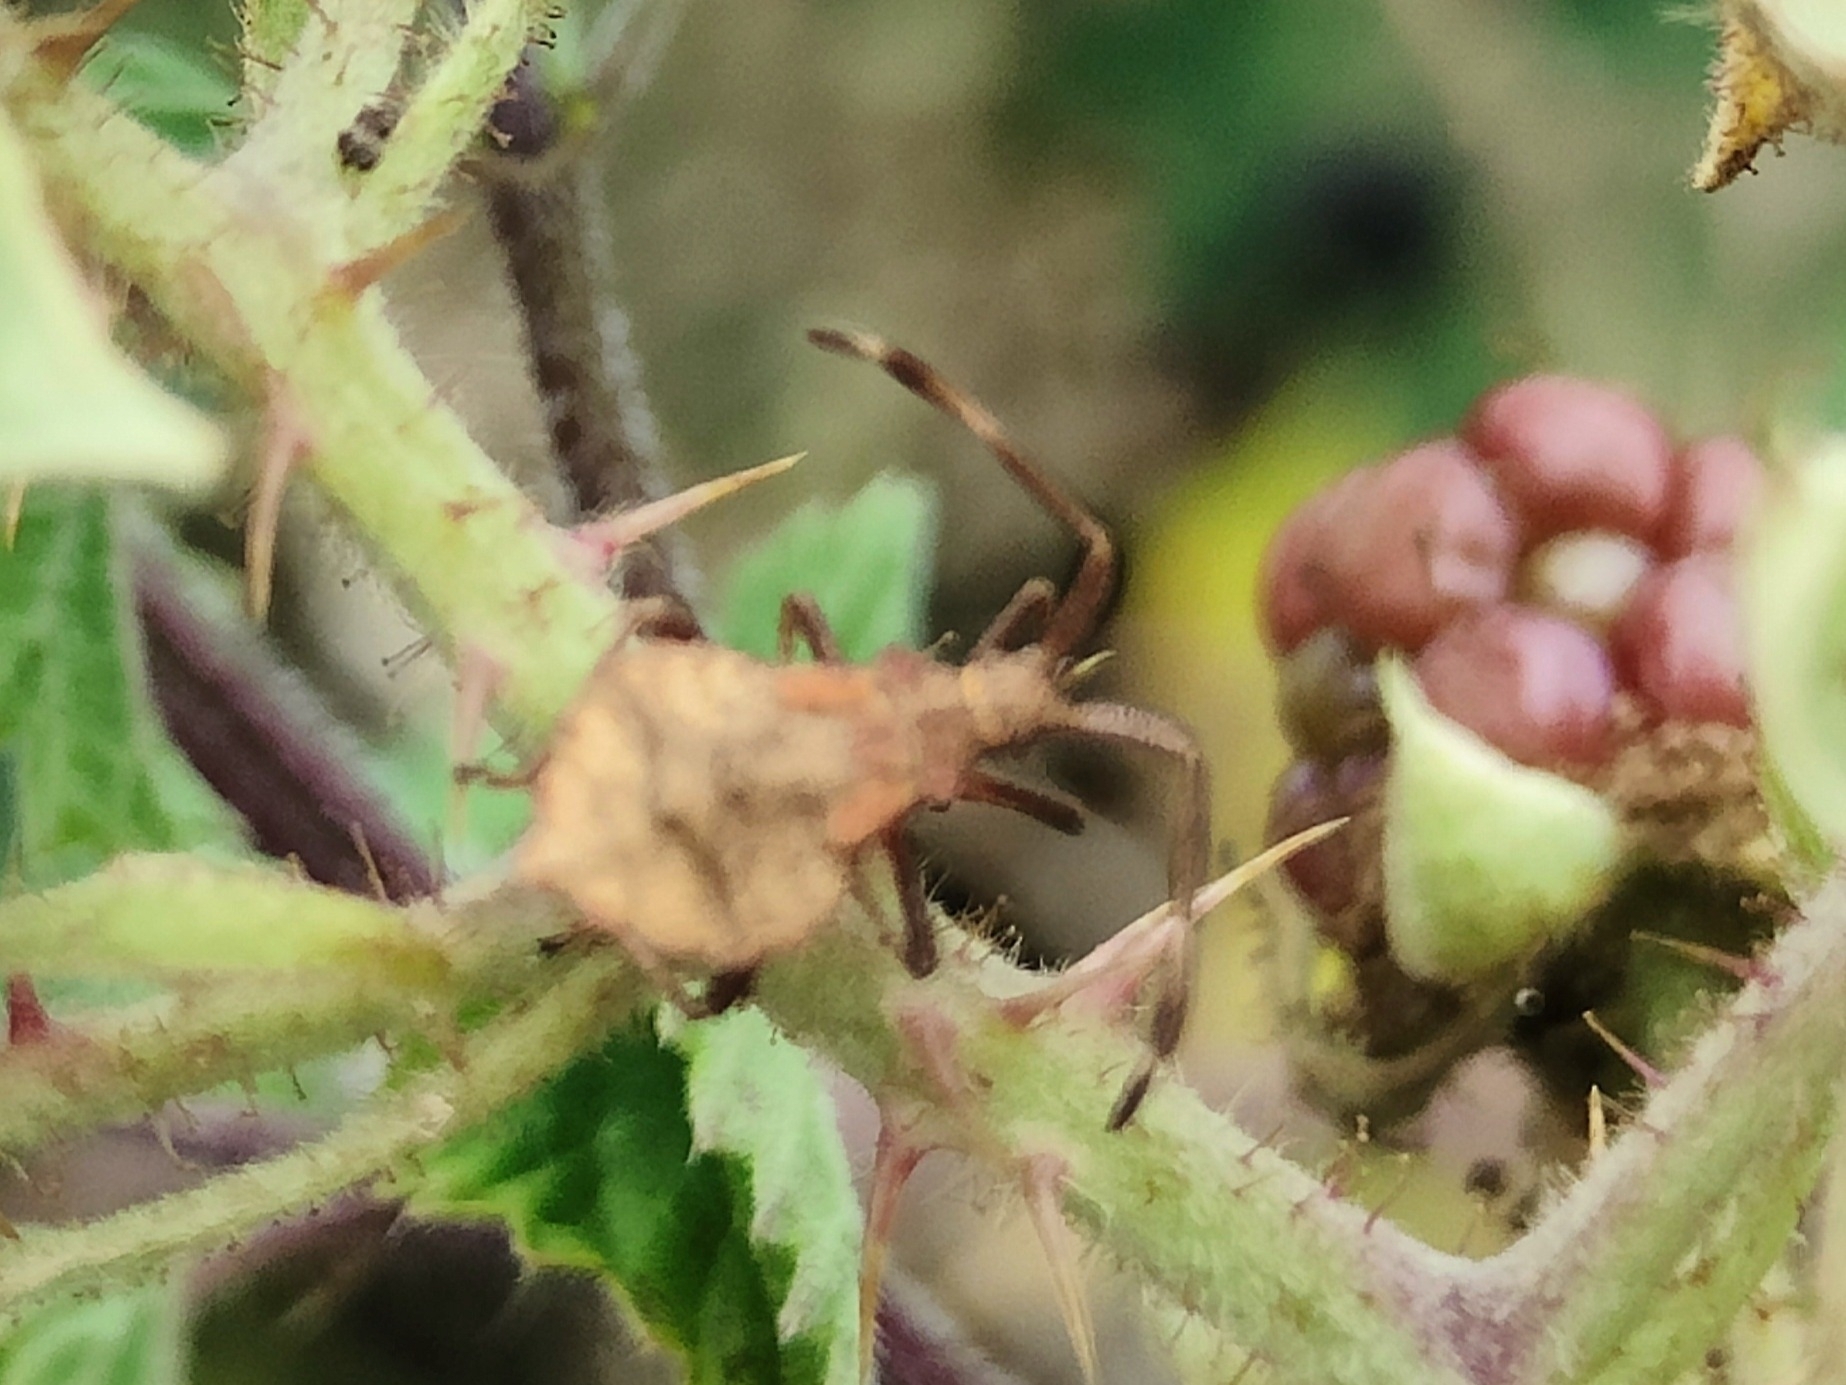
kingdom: Animalia
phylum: Arthropoda
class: Insecta
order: Hemiptera
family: Coreidae
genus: Coreus
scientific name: Coreus marginatus
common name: Dock bug
